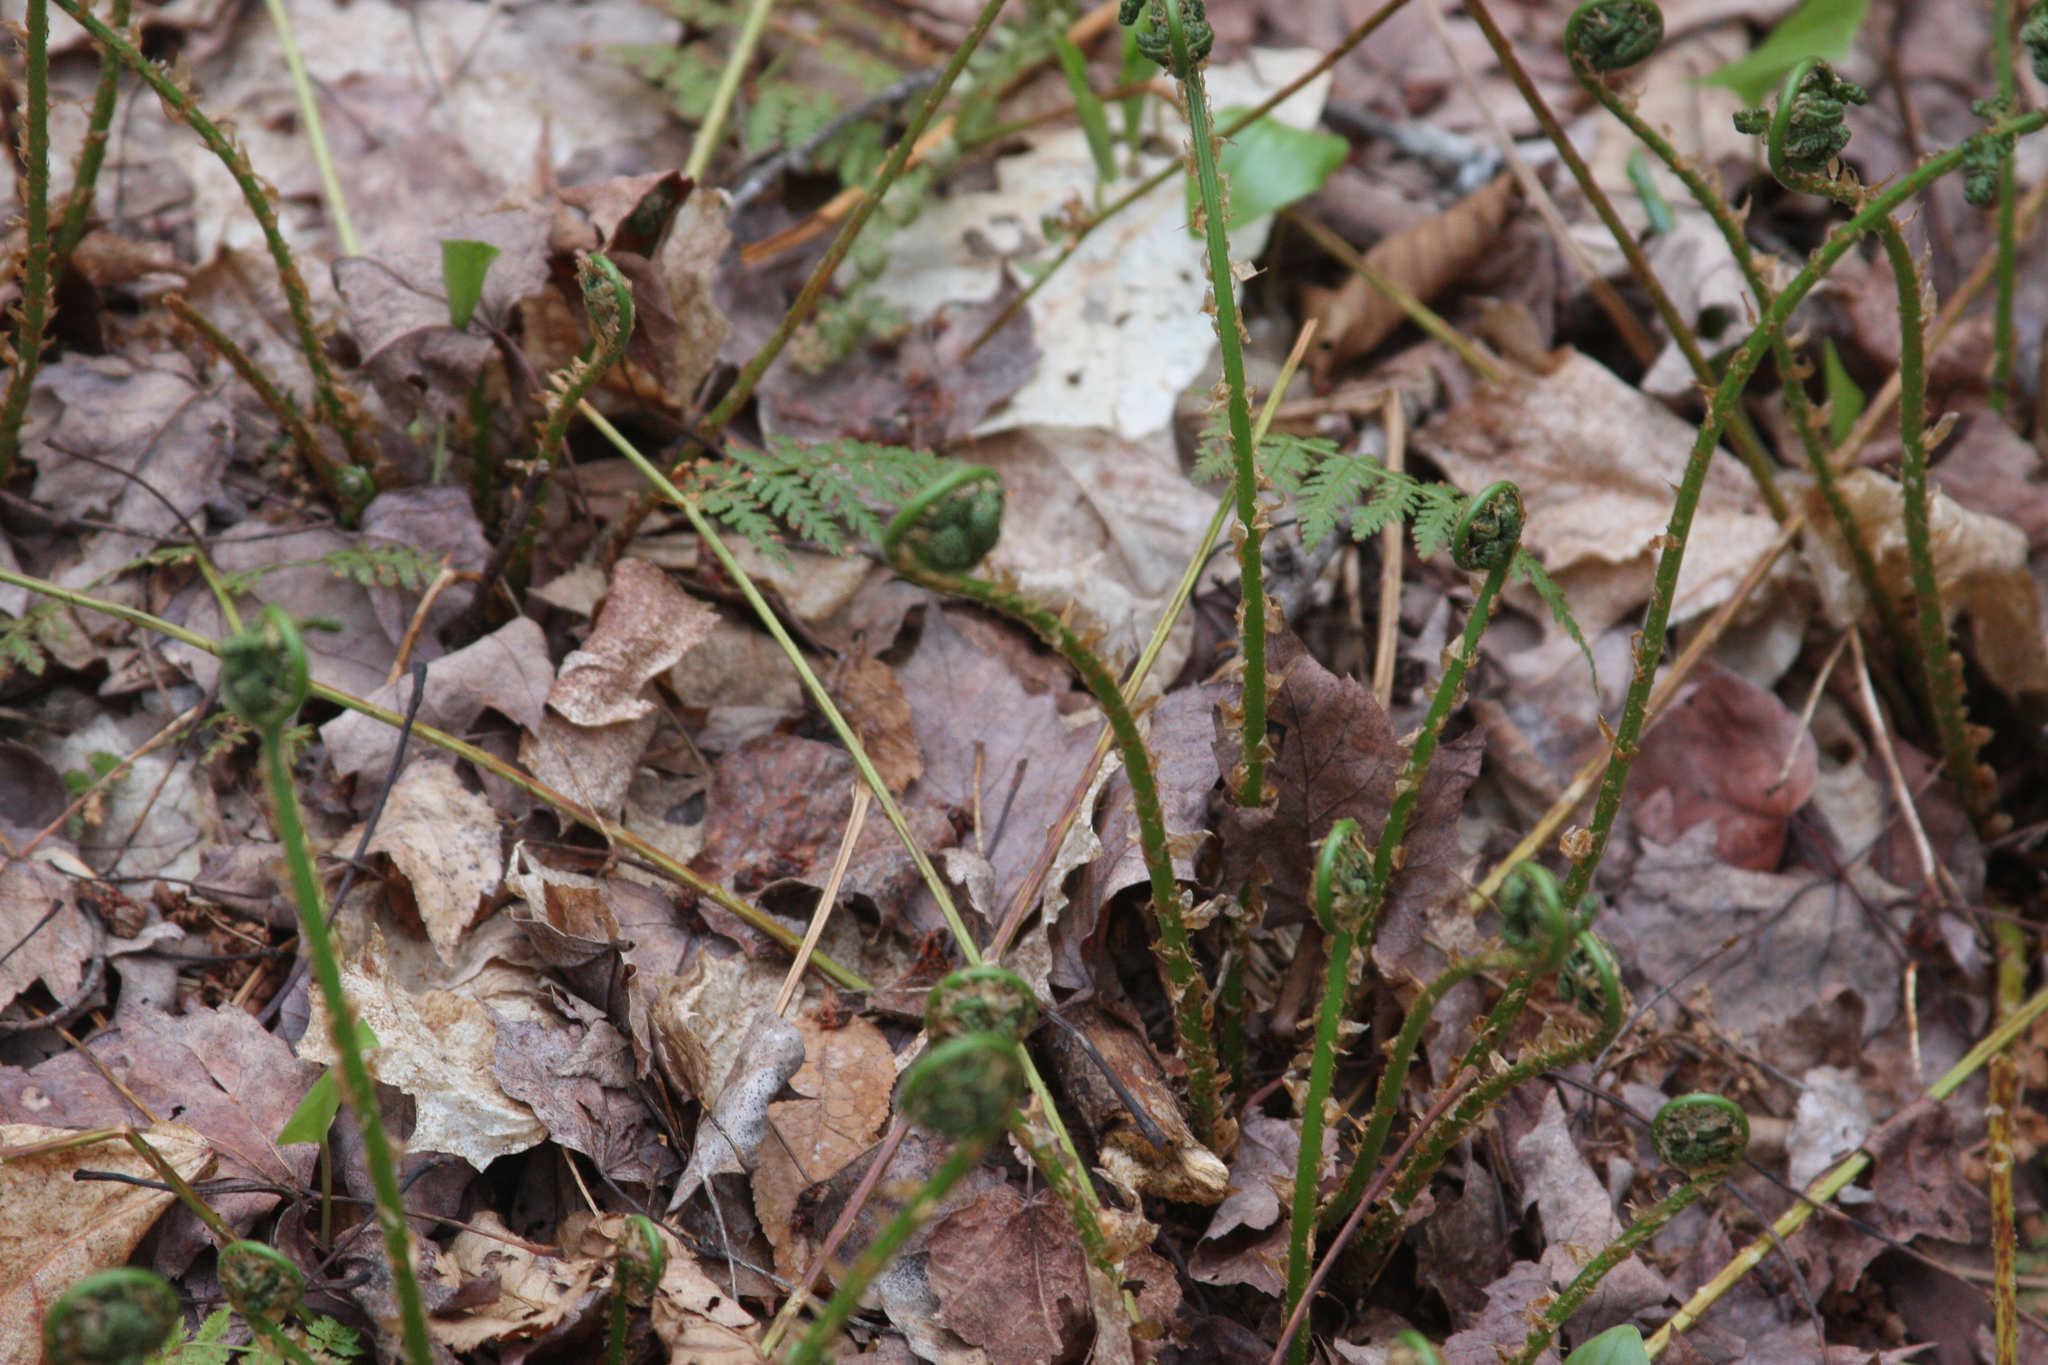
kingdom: Plantae
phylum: Tracheophyta
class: Polypodiopsida
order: Polypodiales
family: Dryopteridaceae
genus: Dryopteris
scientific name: Dryopteris intermedia
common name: Evergreen wood fern
